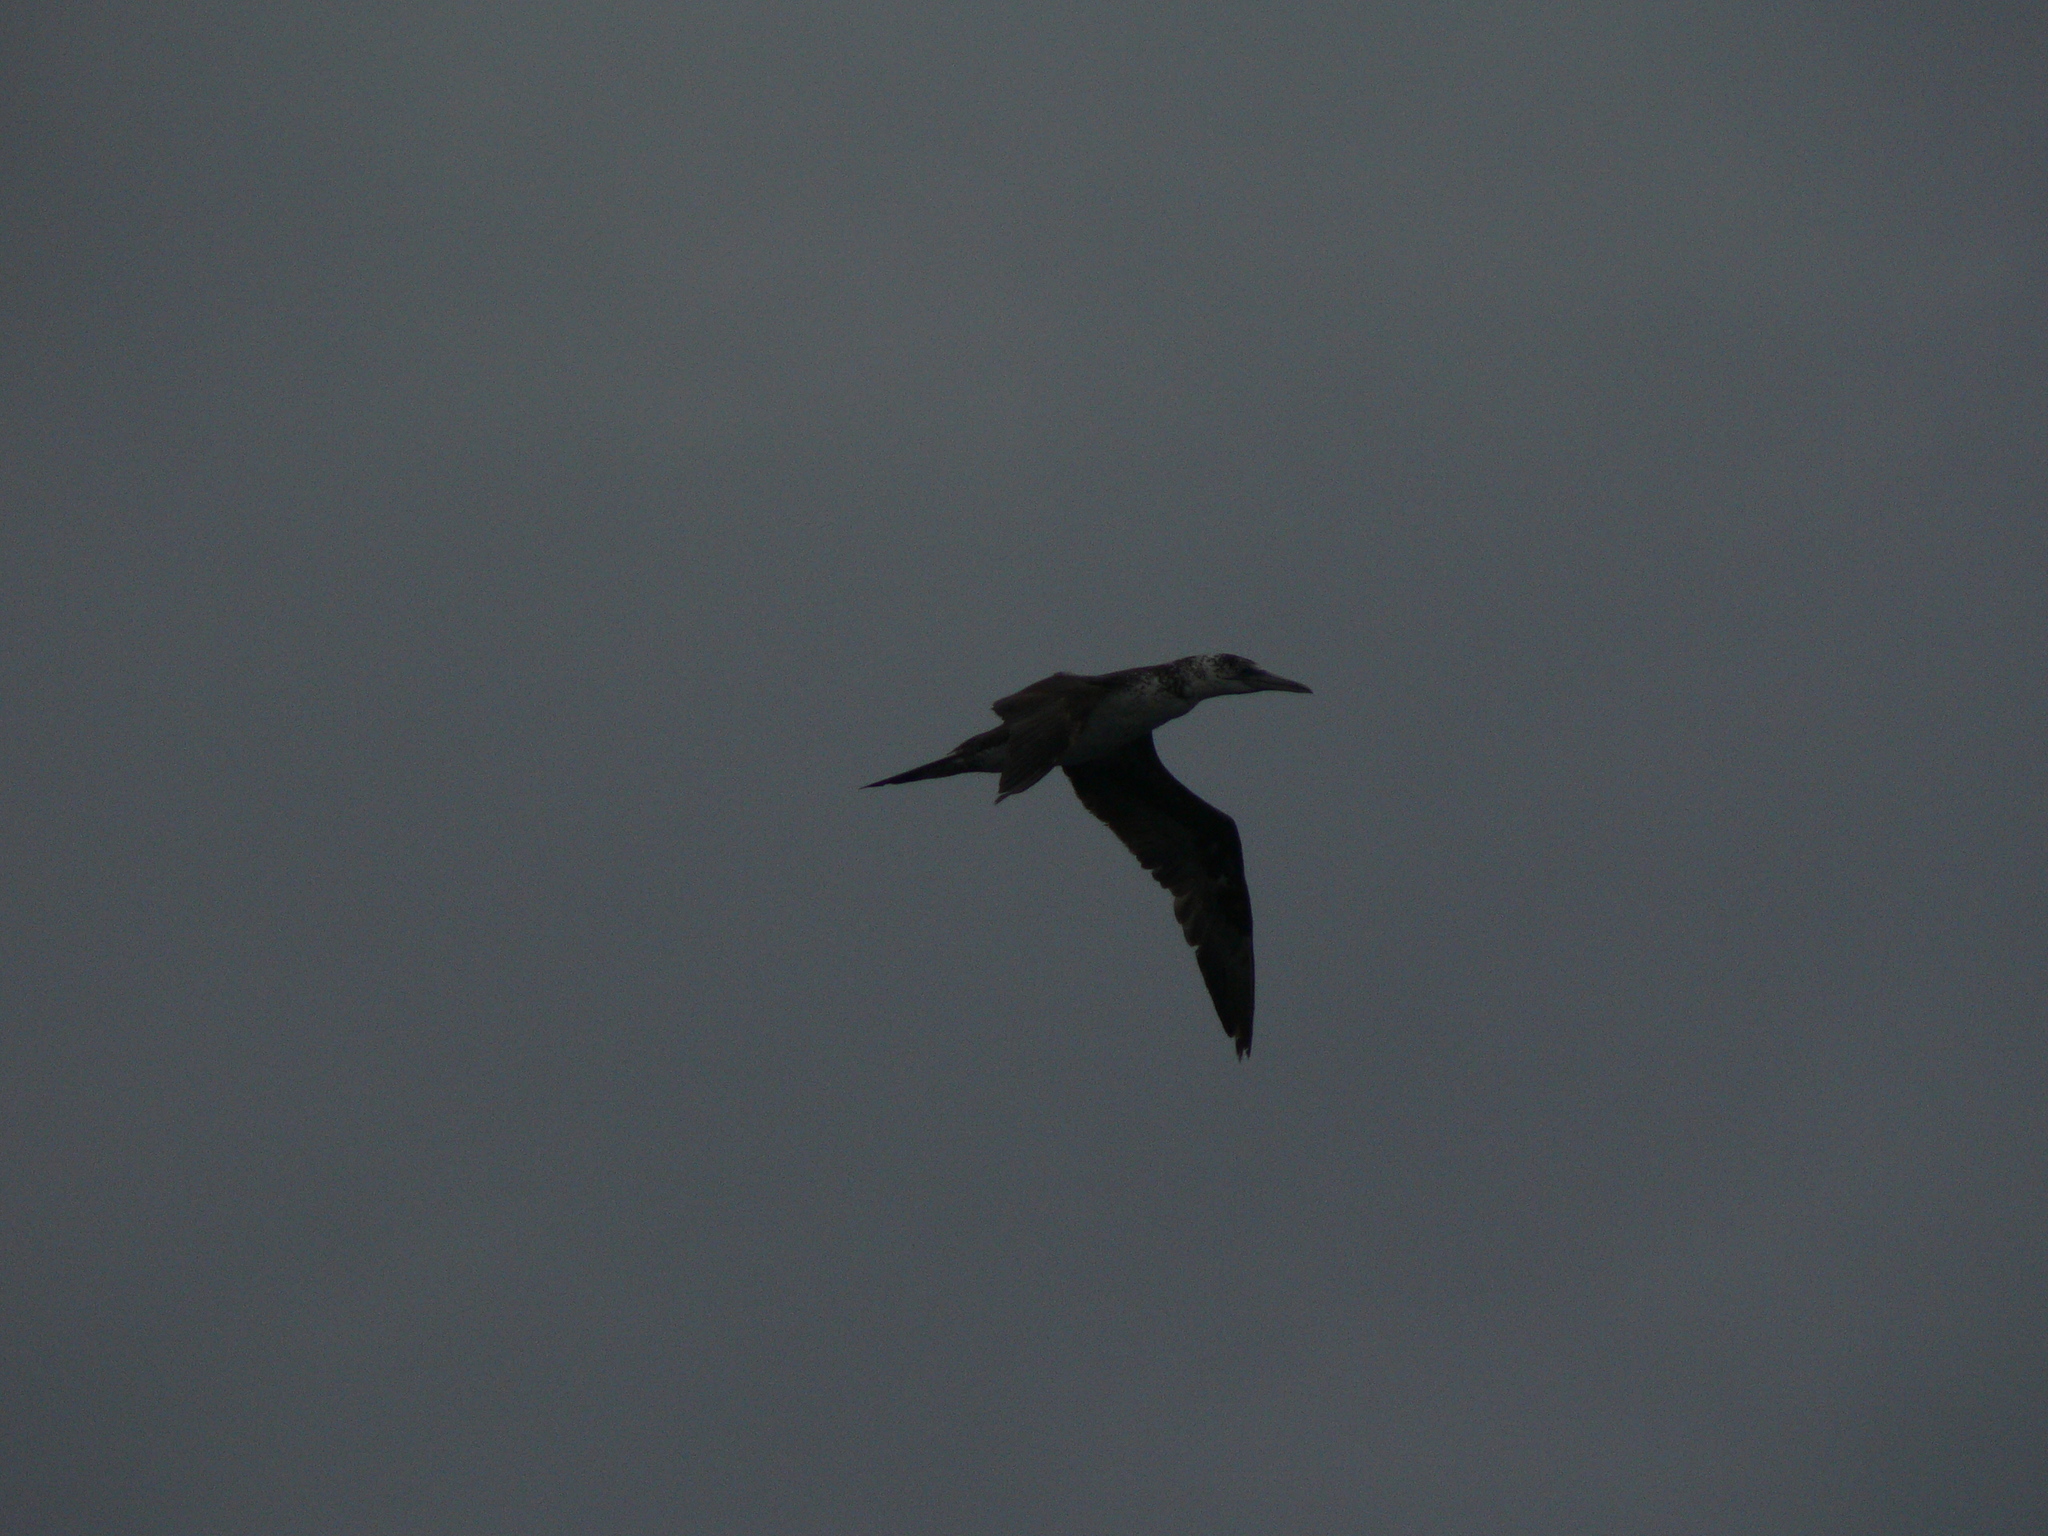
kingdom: Animalia
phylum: Chordata
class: Aves
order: Suliformes
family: Sulidae
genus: Morus
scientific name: Morus bassanus
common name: Northern gannet
